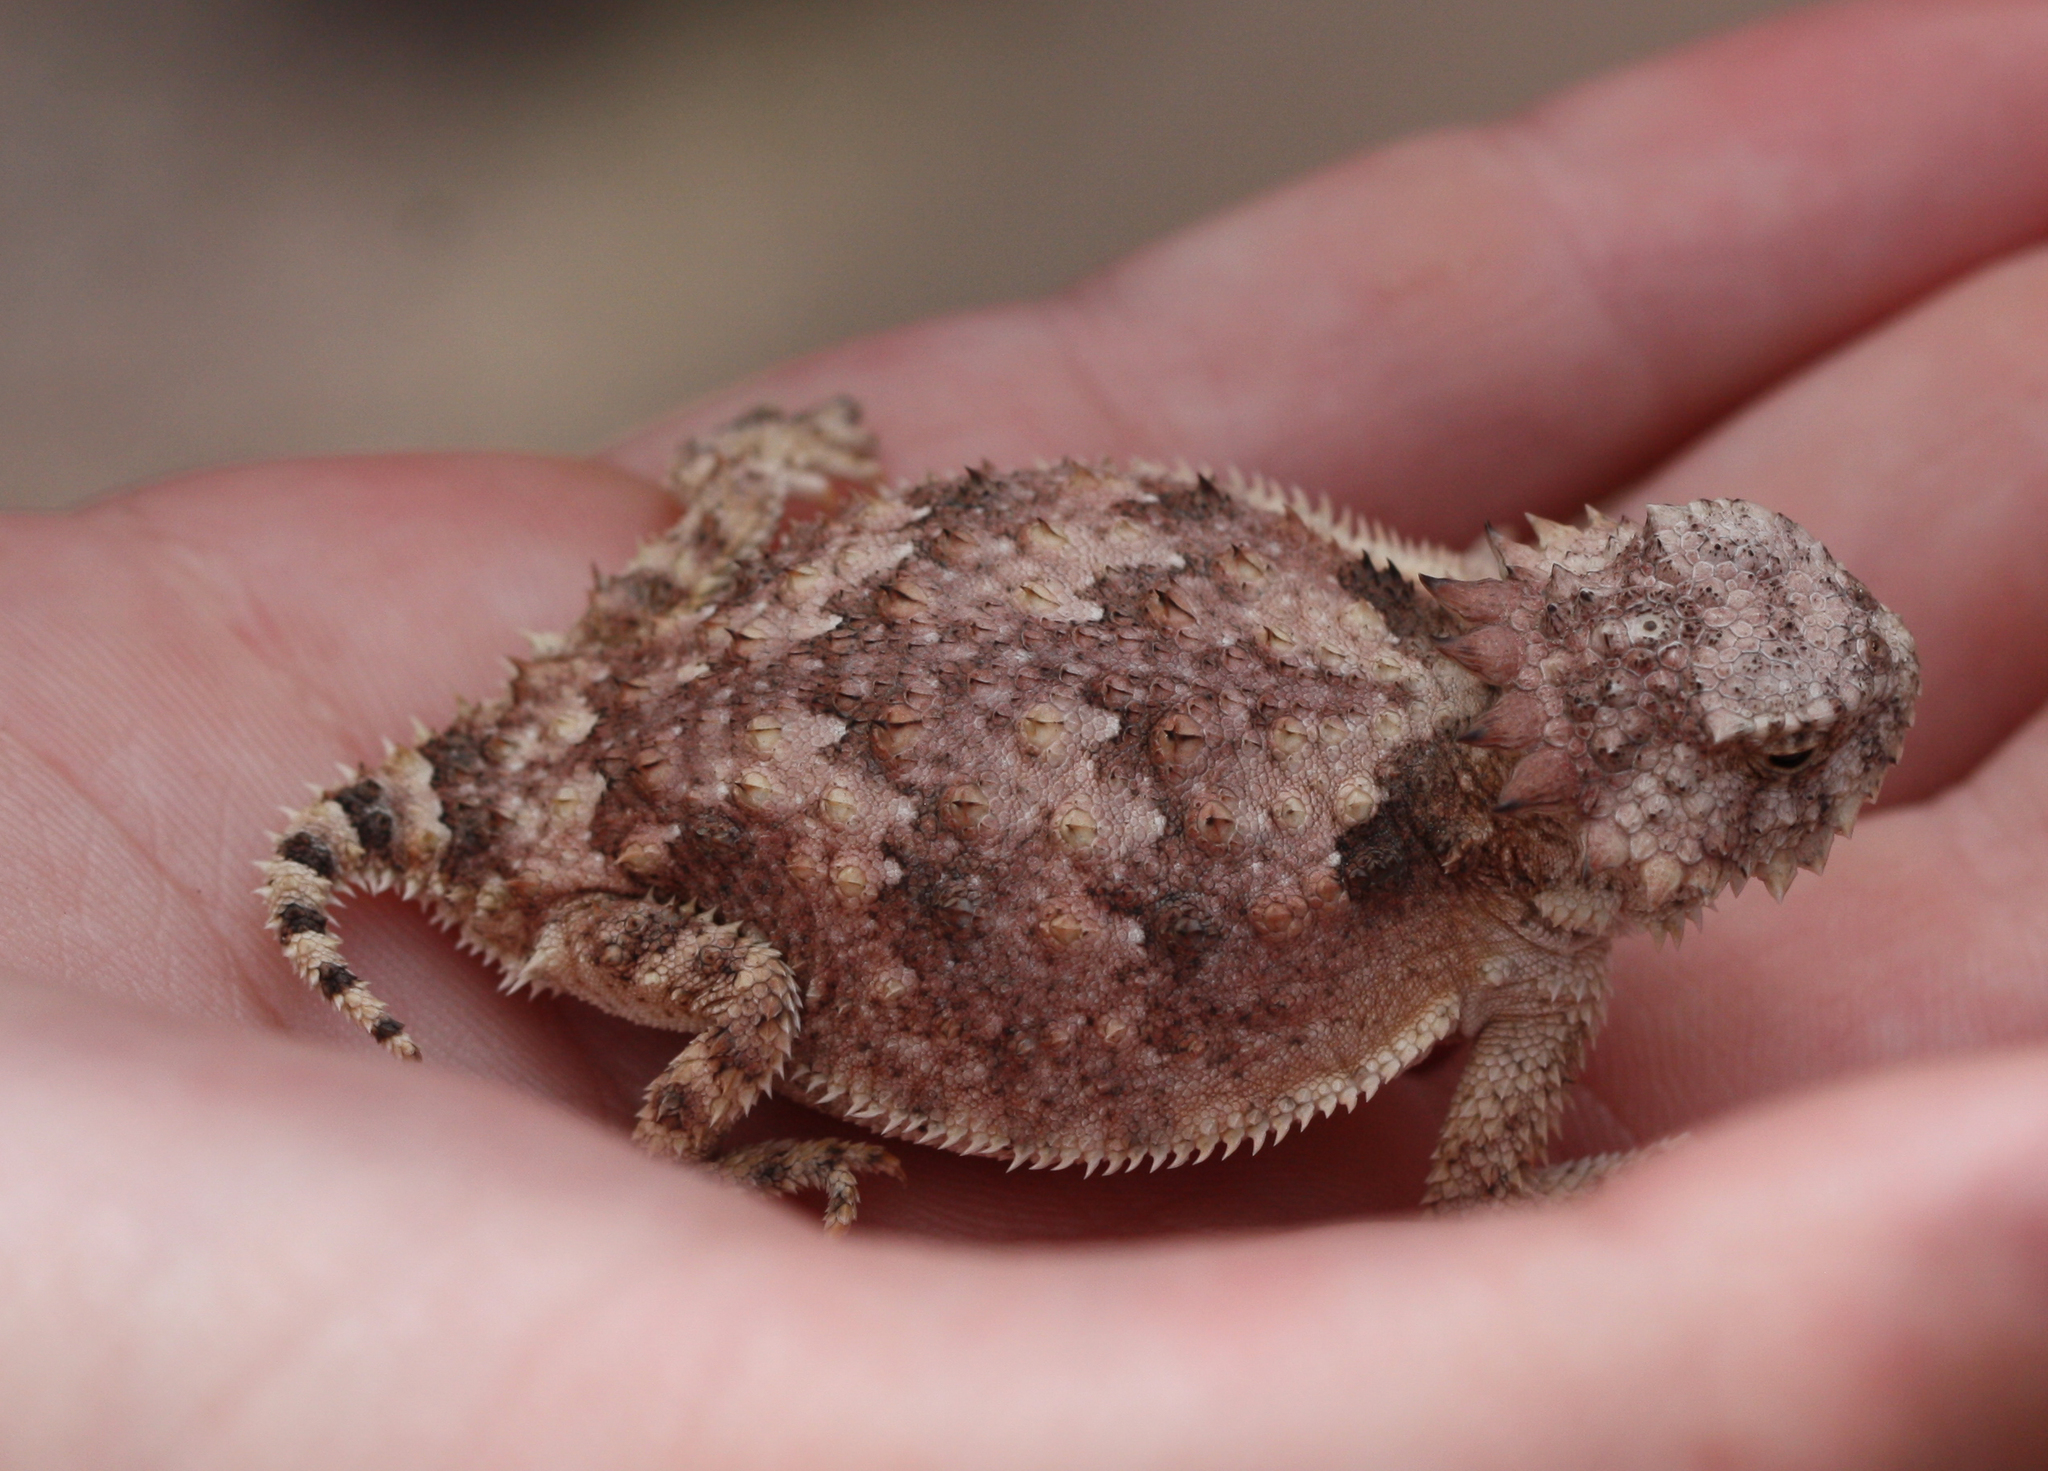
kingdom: Animalia
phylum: Chordata
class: Squamata
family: Phrynosomatidae
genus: Phrynosoma
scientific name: Phrynosoma solare
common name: Regal horned lizard
